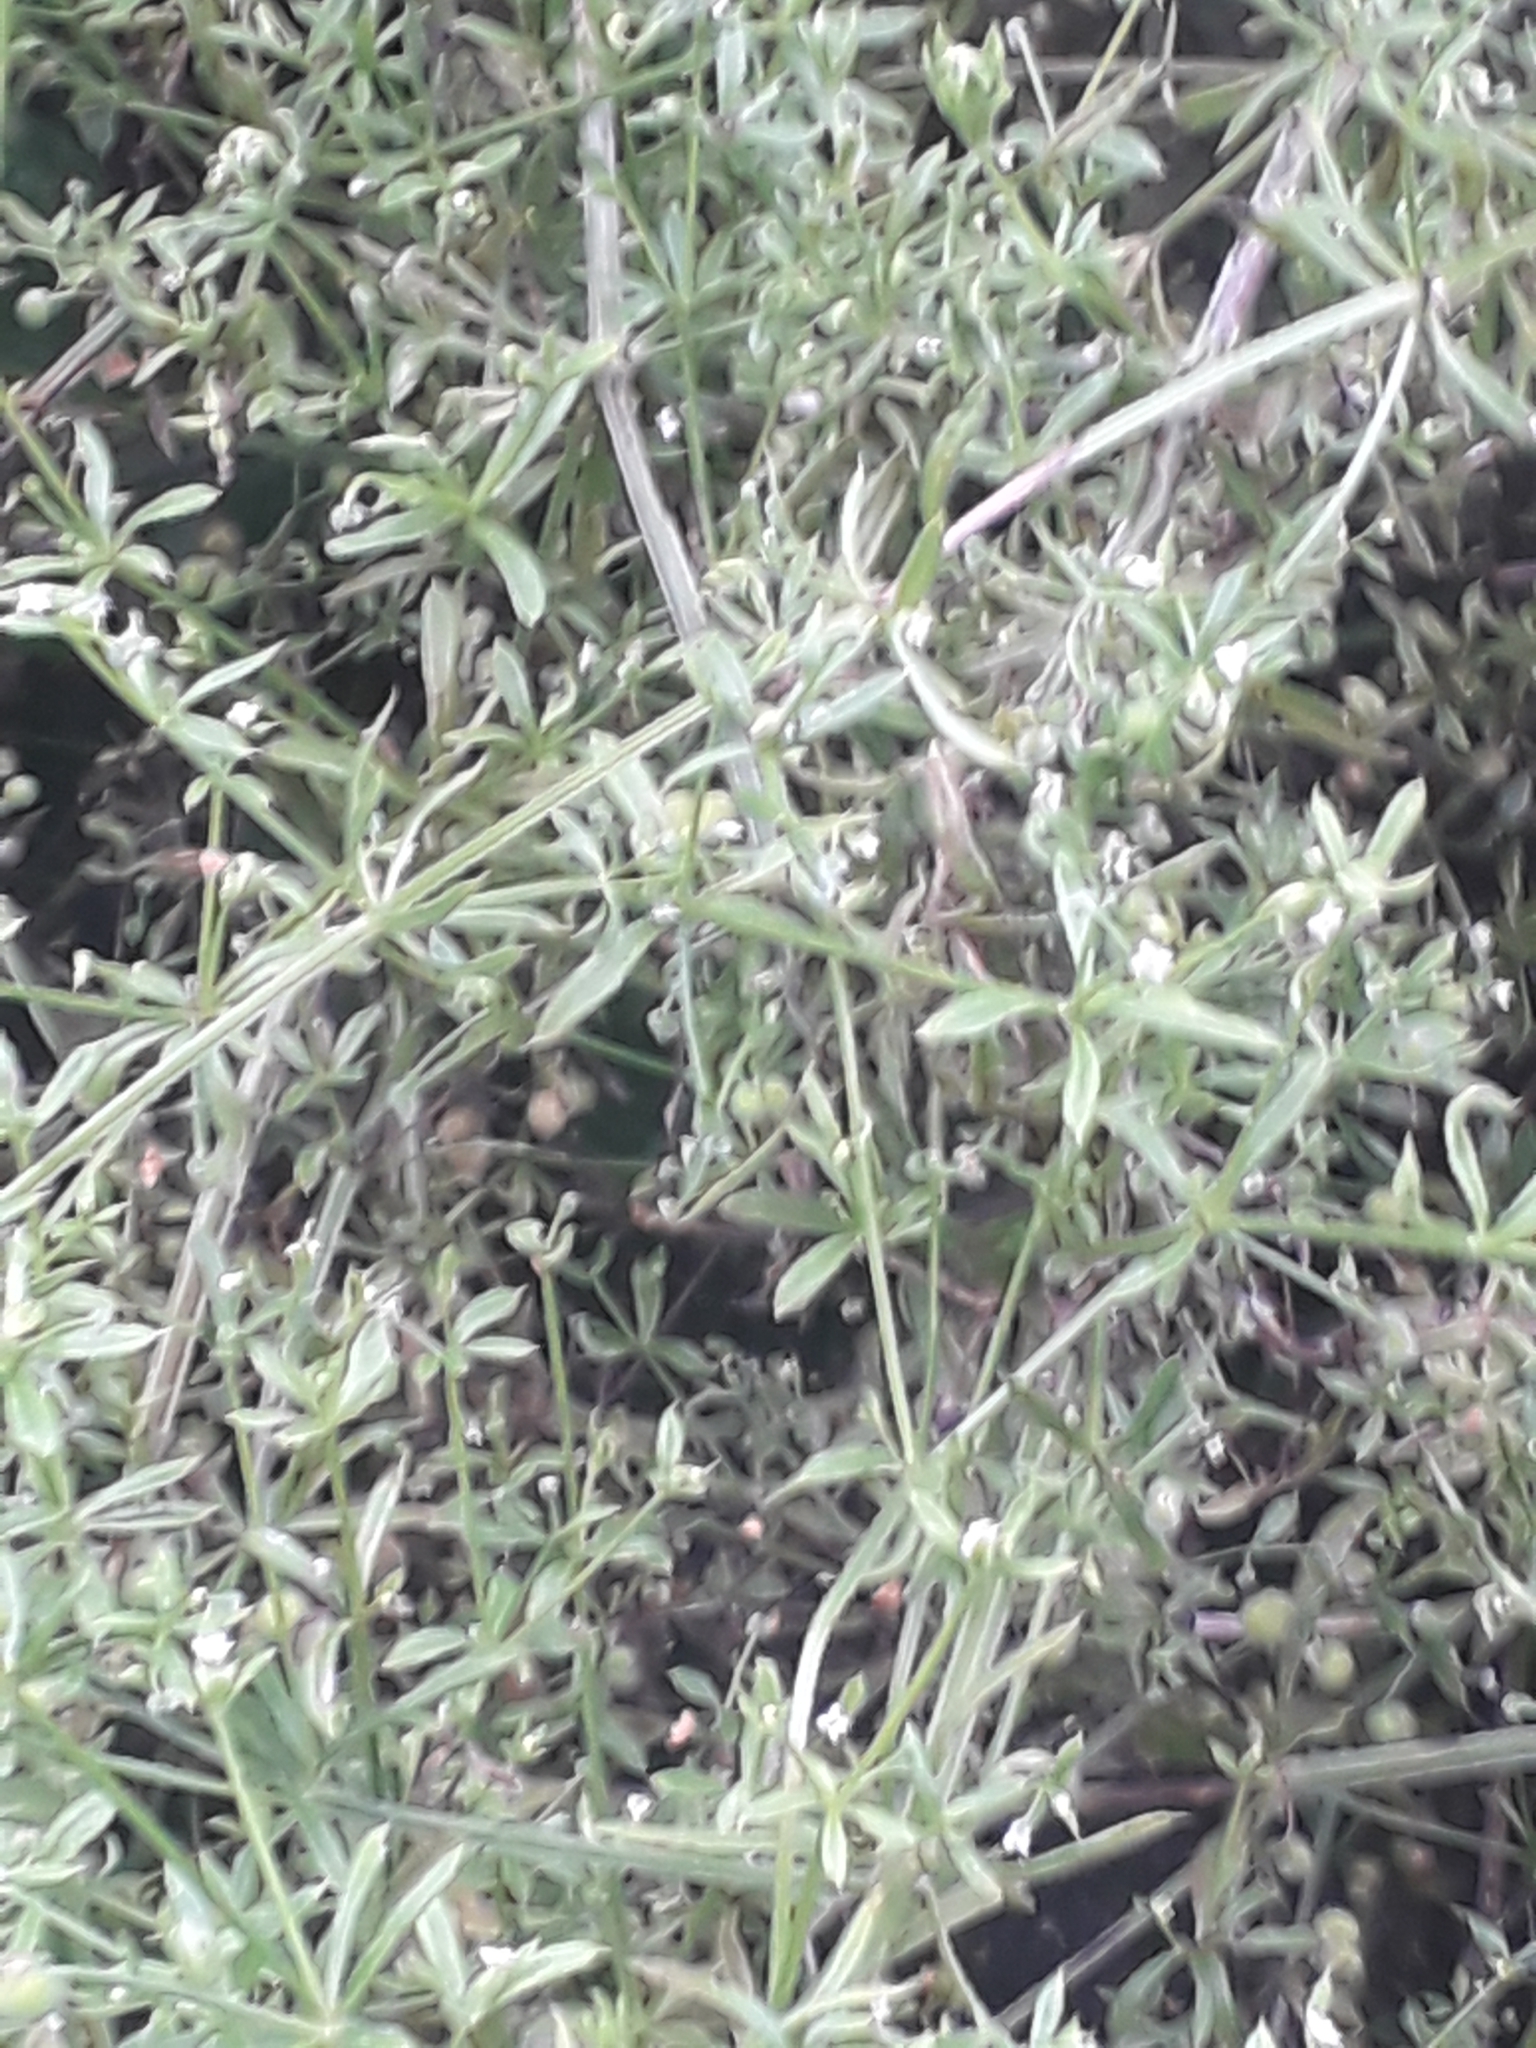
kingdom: Plantae
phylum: Tracheophyta
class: Magnoliopsida
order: Gentianales
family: Rubiaceae
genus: Galium
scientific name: Galium aparine
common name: Cleavers
